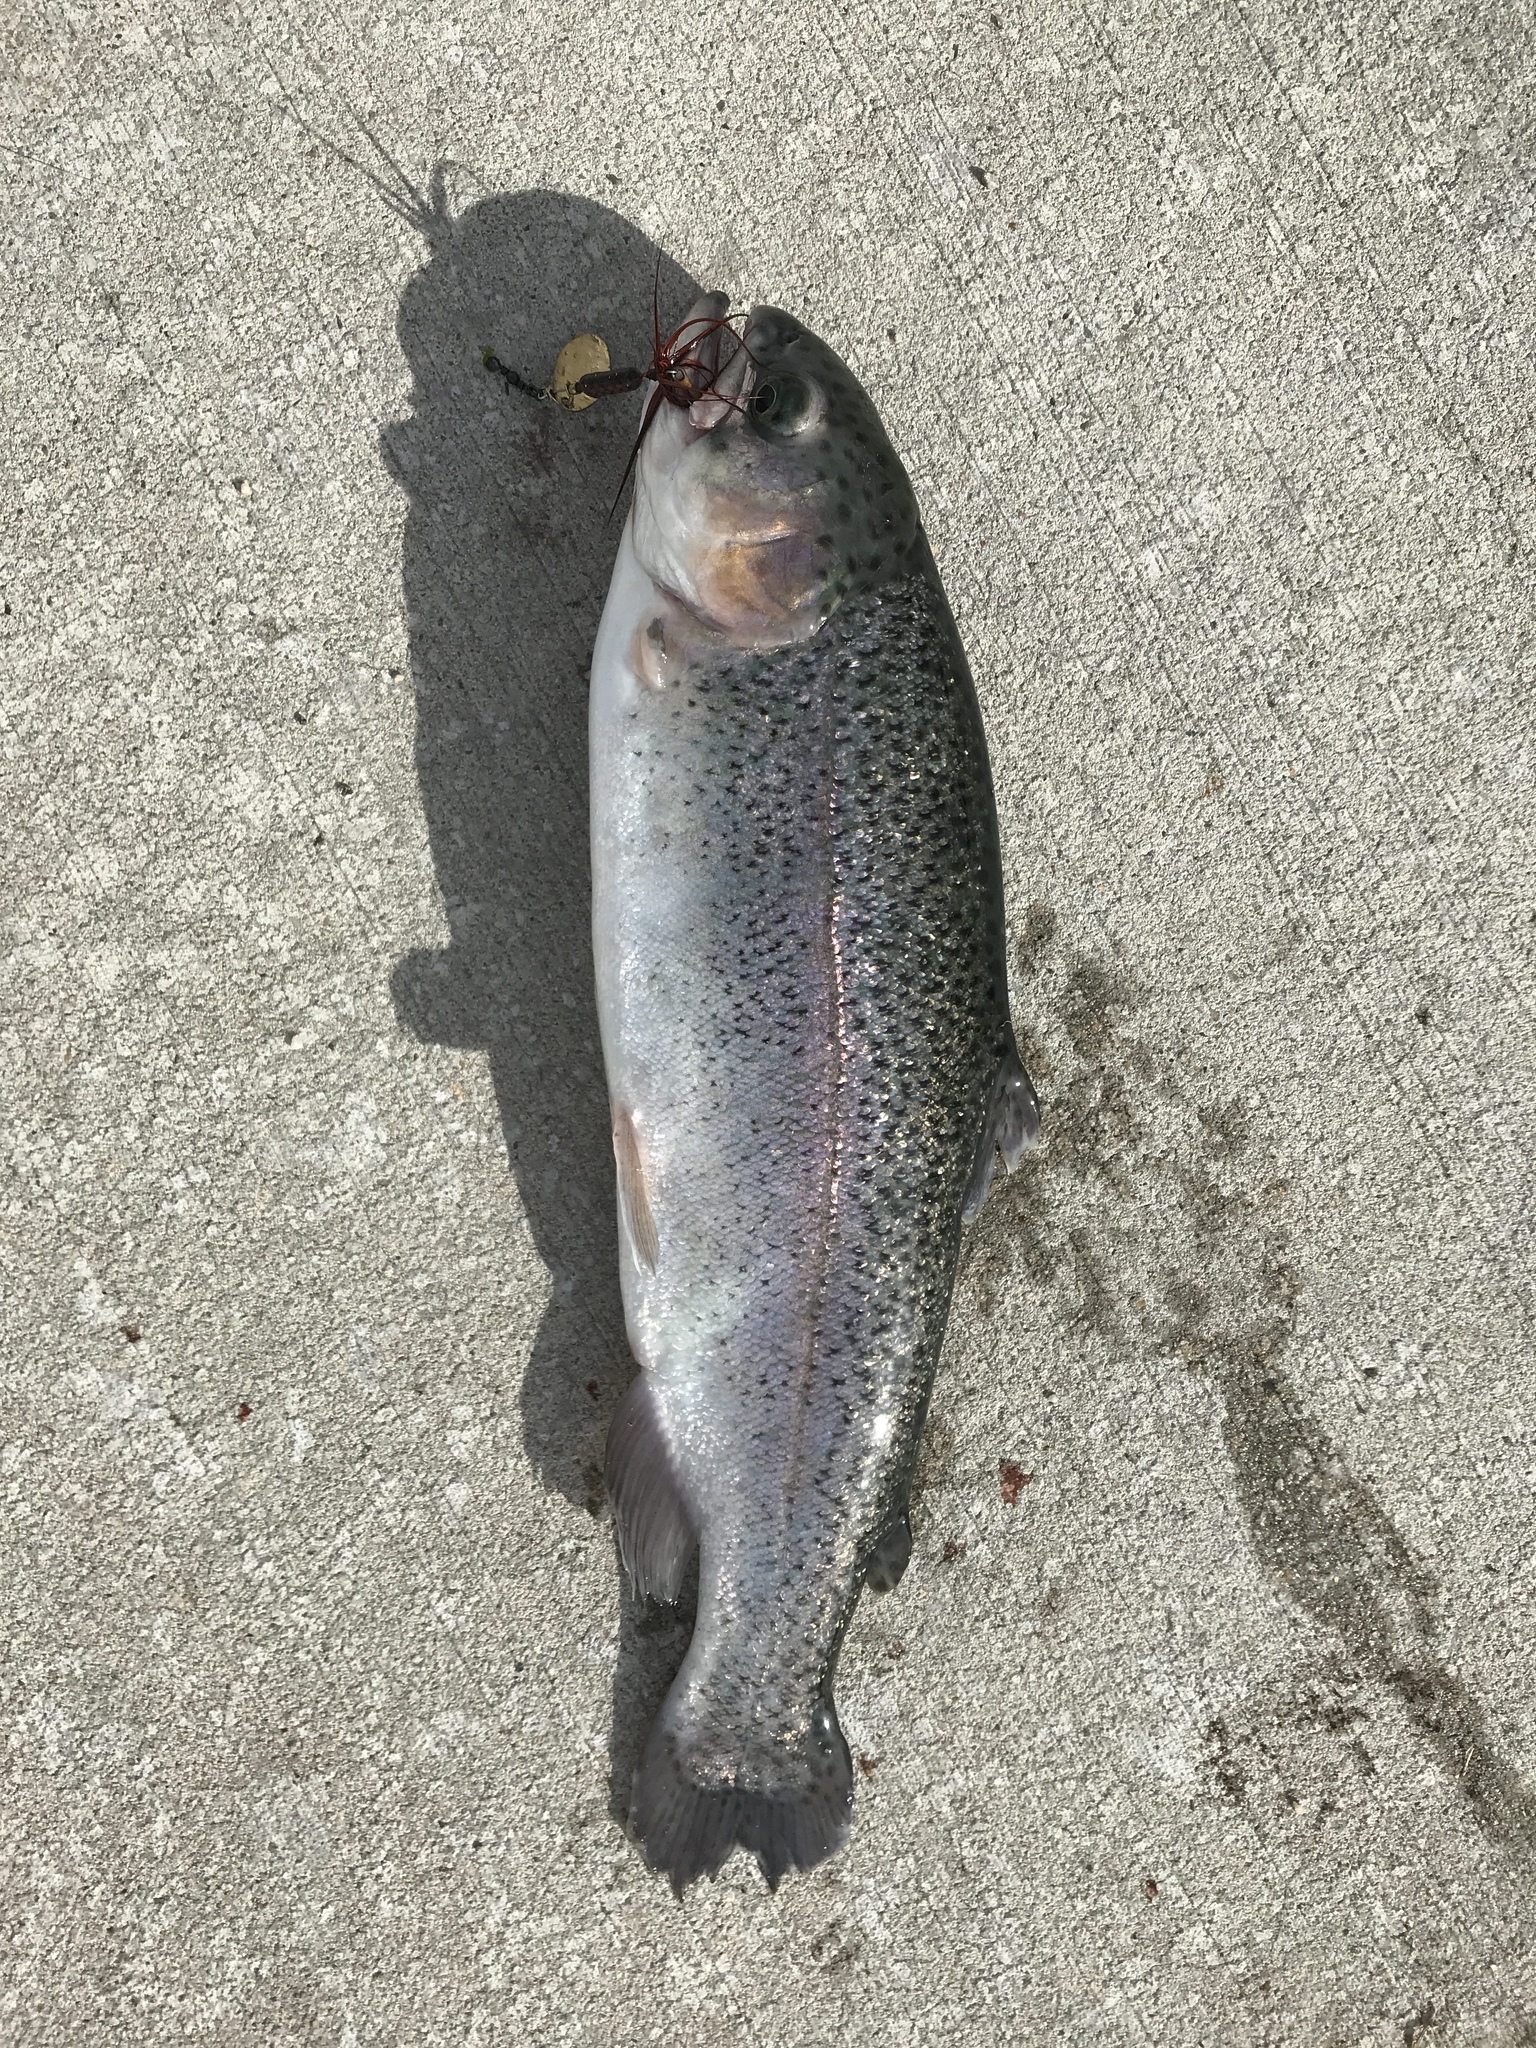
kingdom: Animalia
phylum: Chordata
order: Salmoniformes
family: Salmonidae
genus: Oncorhynchus
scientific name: Oncorhynchus mykiss
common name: Rainbow trout
